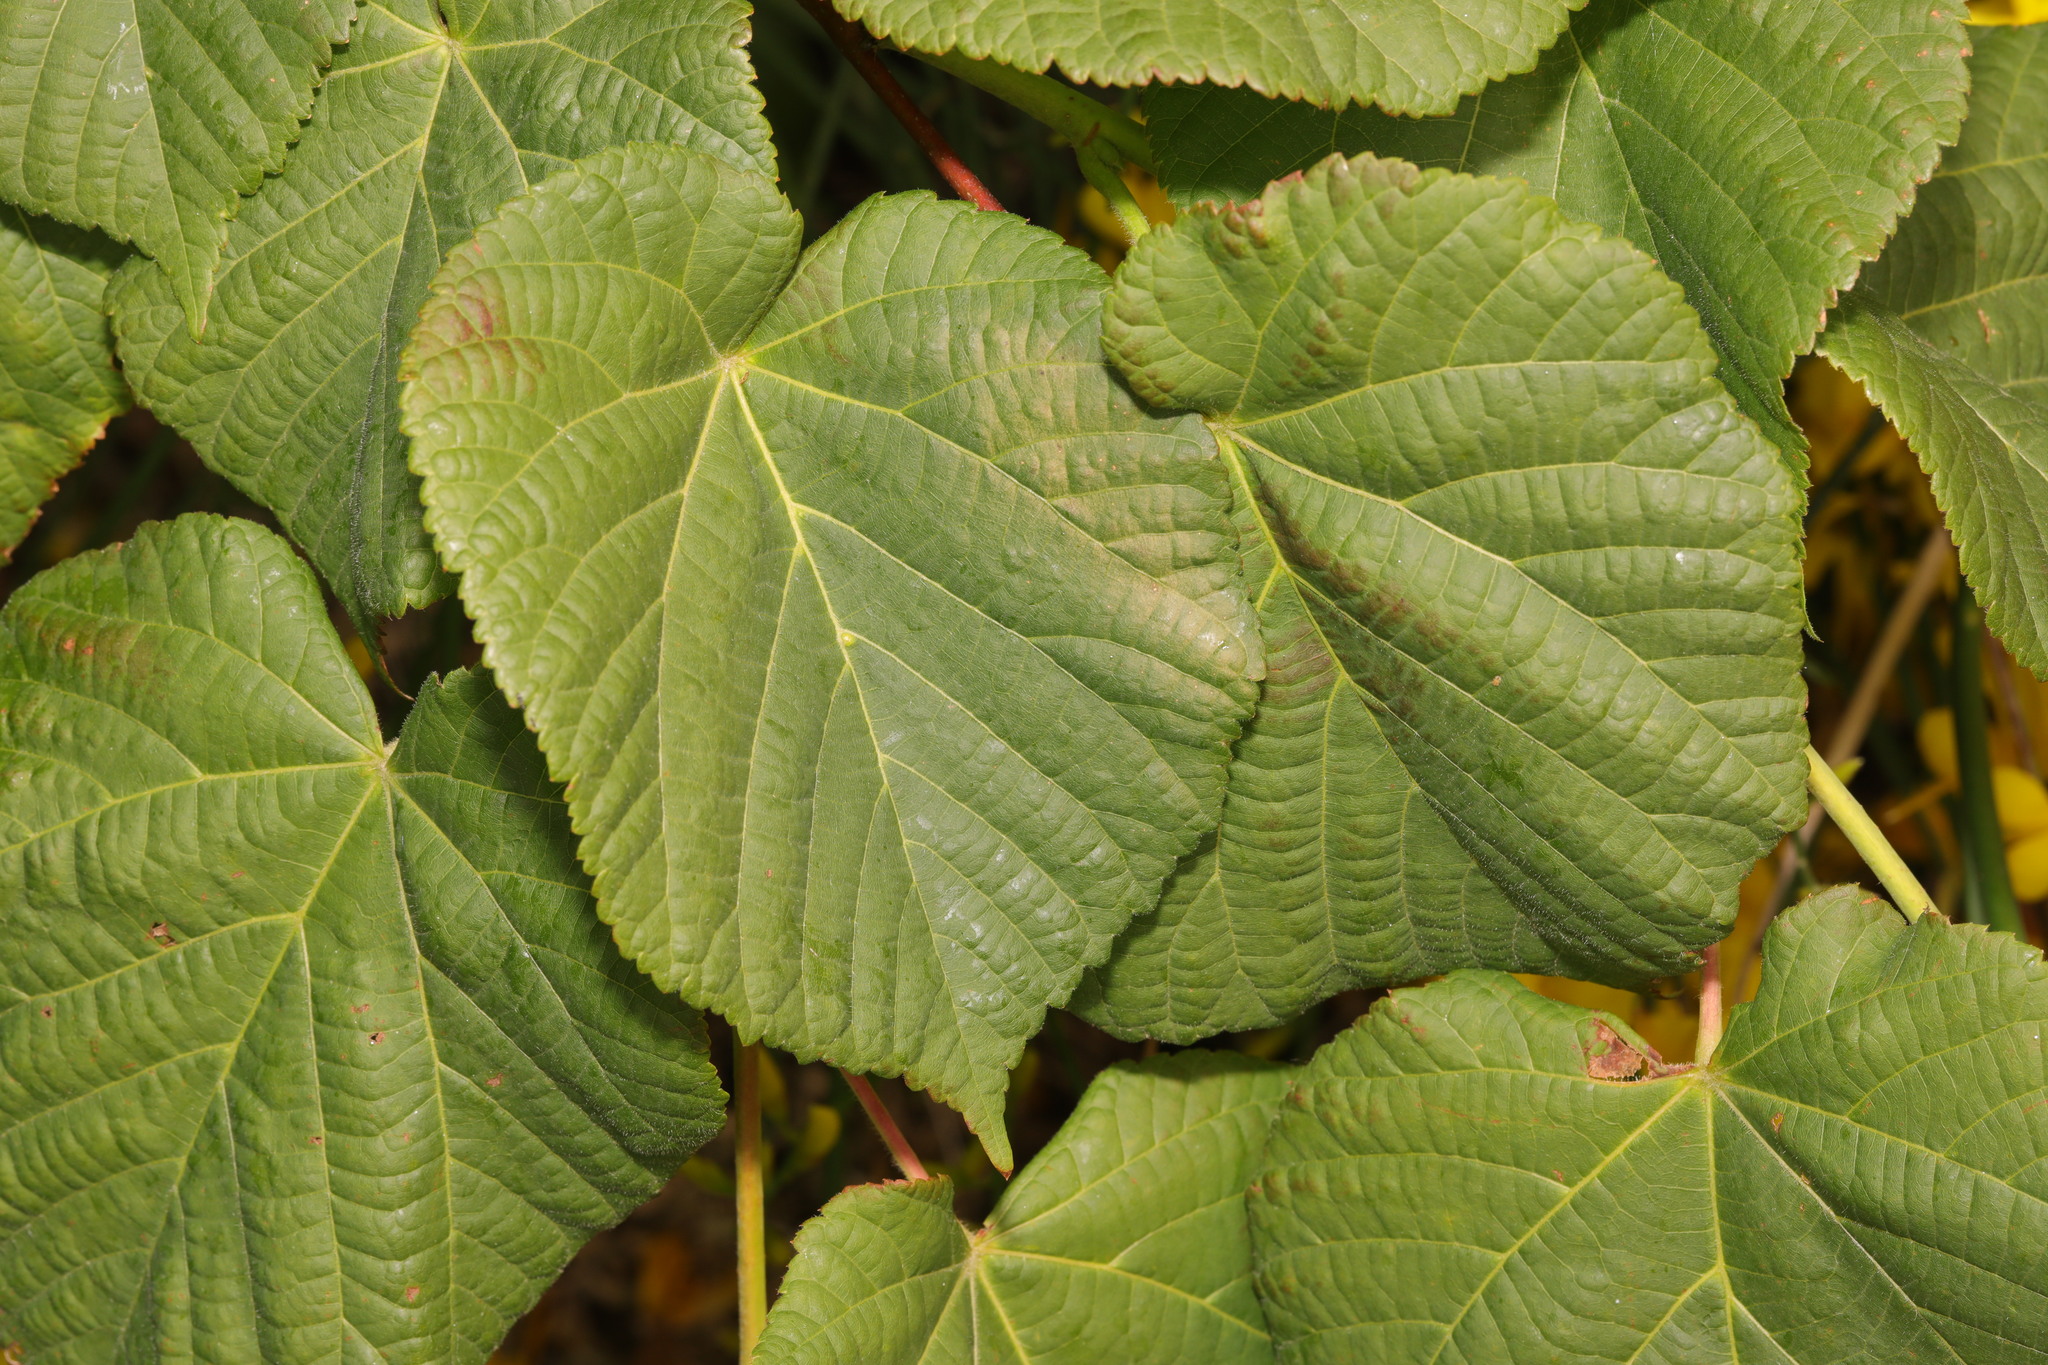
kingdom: Plantae
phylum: Tracheophyta
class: Magnoliopsida
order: Malvales
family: Malvaceae
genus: Tilia
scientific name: Tilia europaea
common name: European linden
